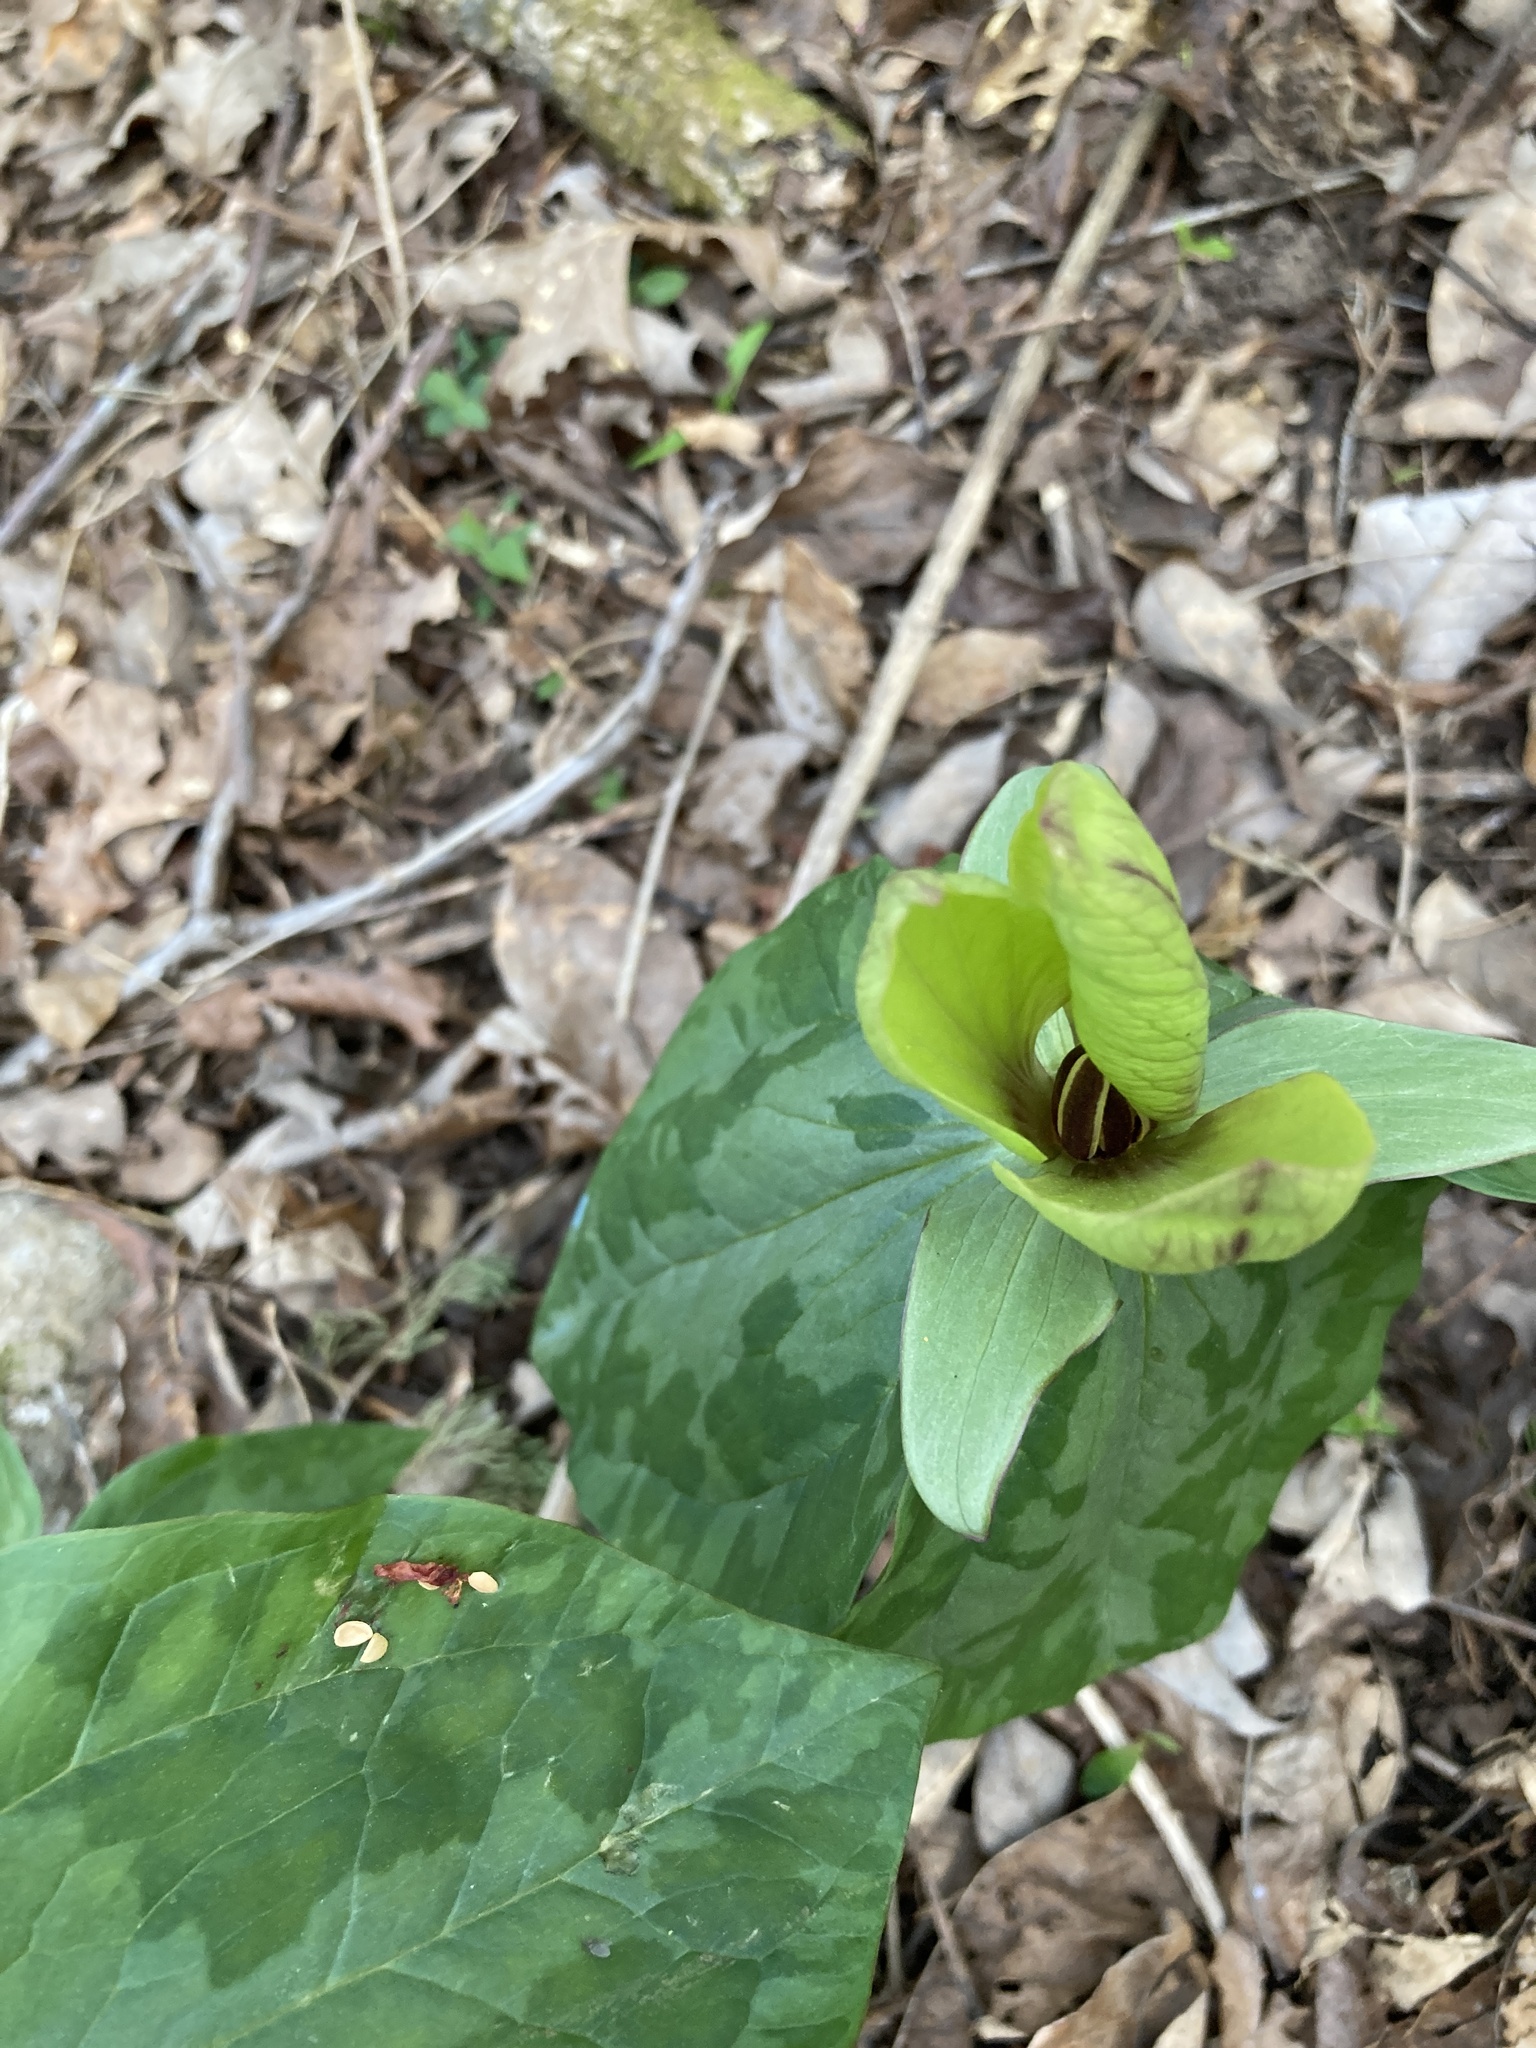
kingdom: Plantae
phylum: Tracheophyta
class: Liliopsida
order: Liliales
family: Melanthiaceae
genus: Trillium
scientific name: Trillium cuneatum
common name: Cuneate trillium
